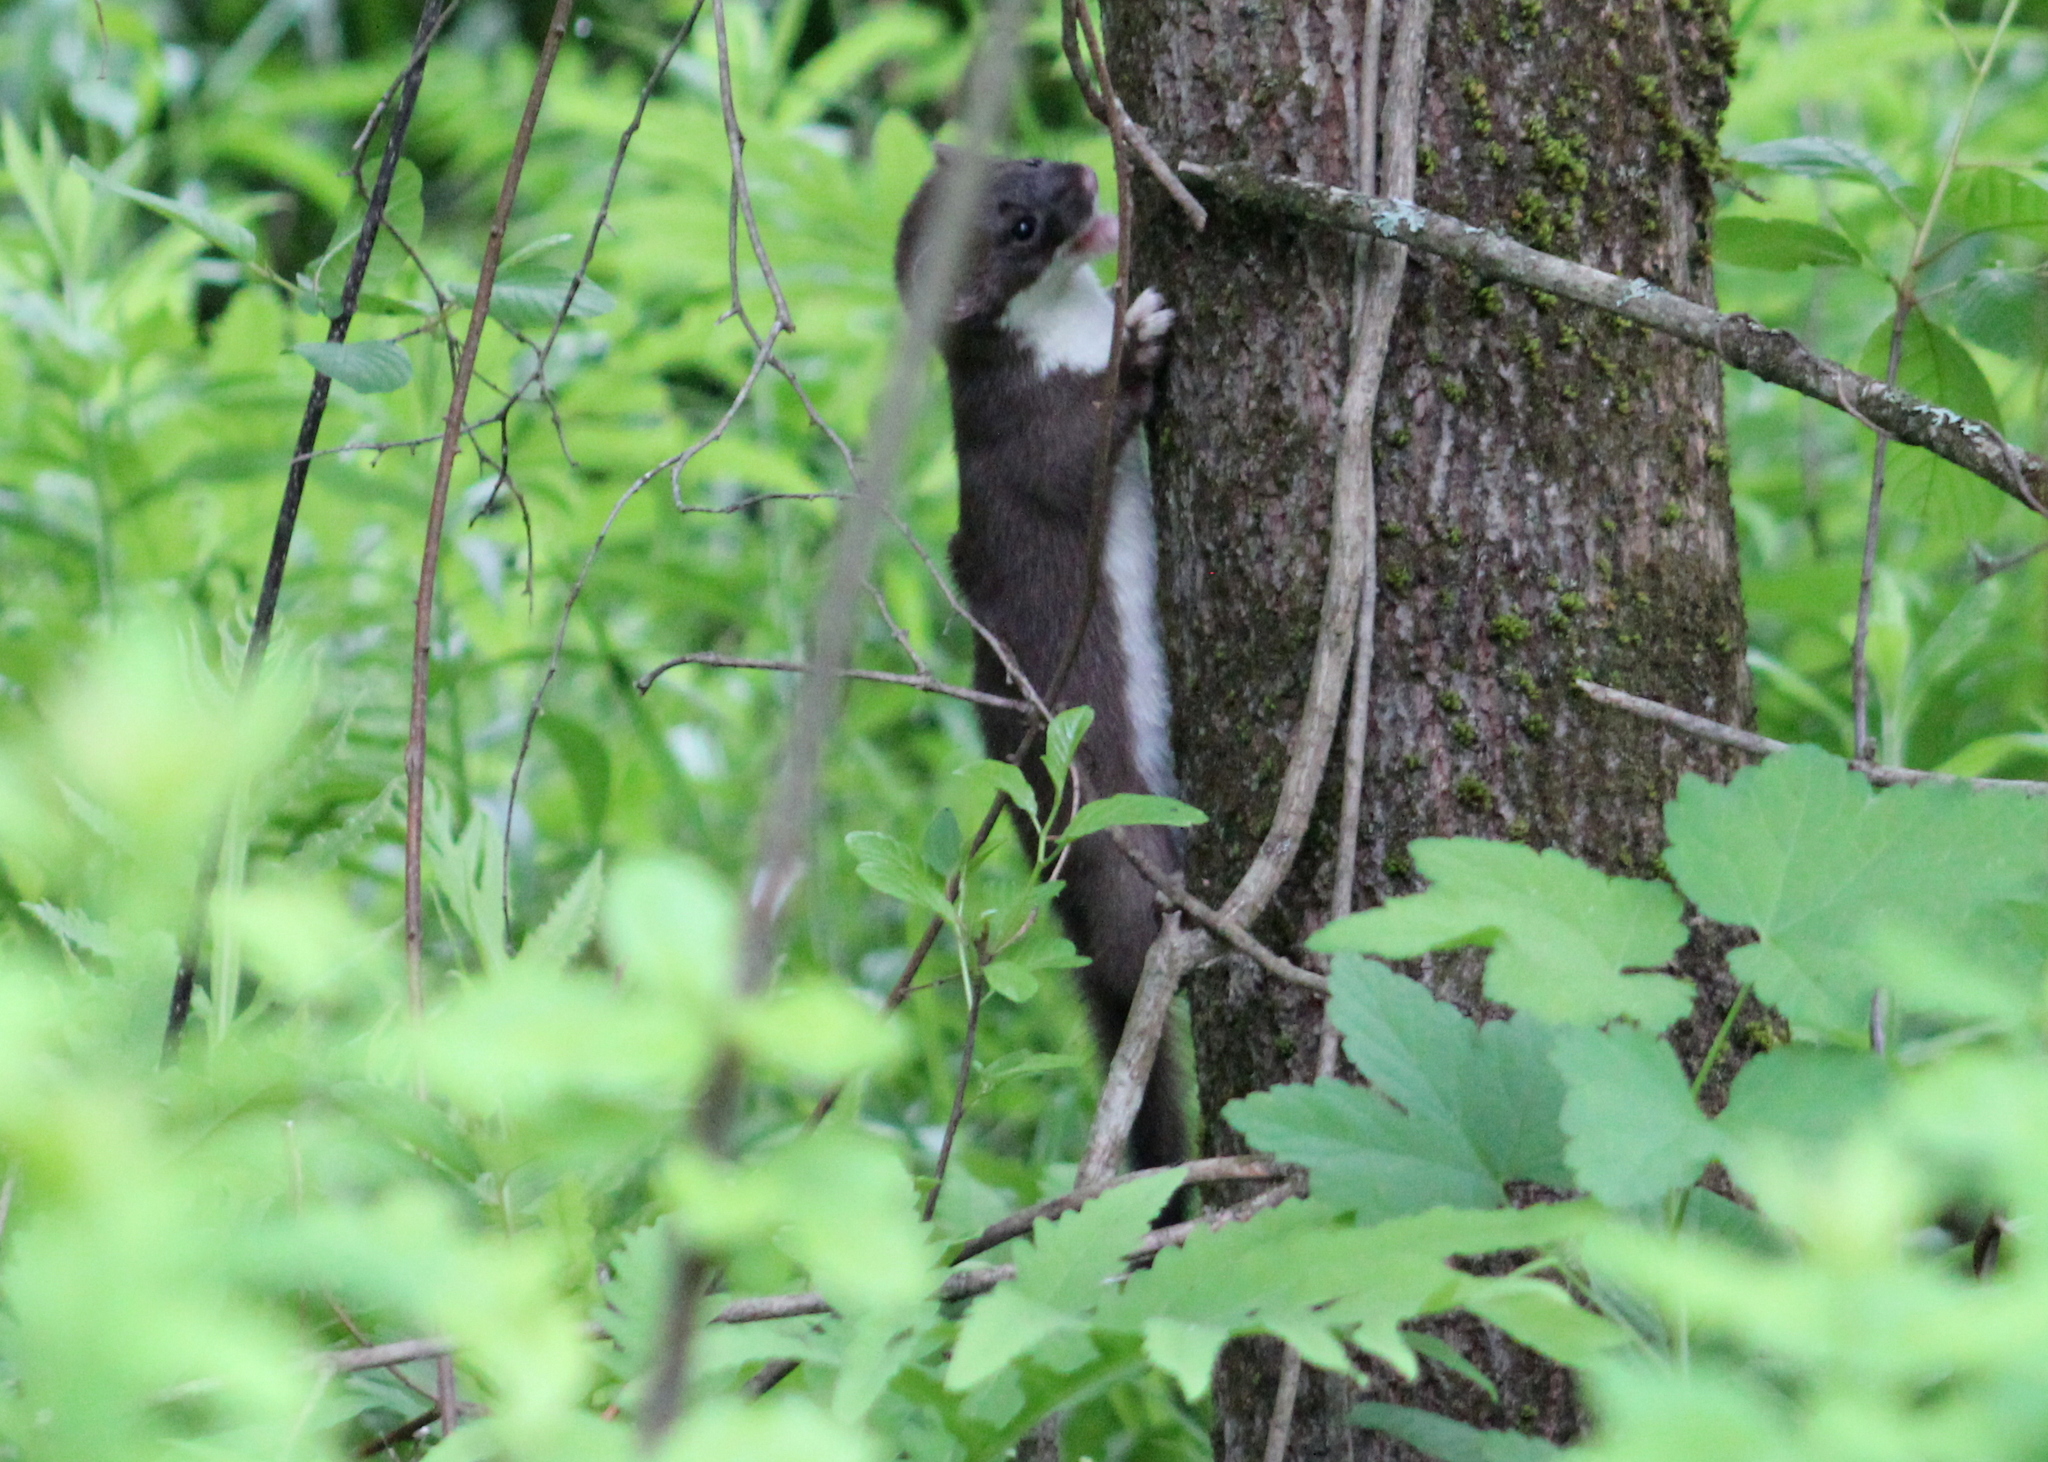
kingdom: Animalia
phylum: Chordata
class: Mammalia
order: Carnivora
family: Mustelidae
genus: Mustela
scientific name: Mustela erminea
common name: Stoat
